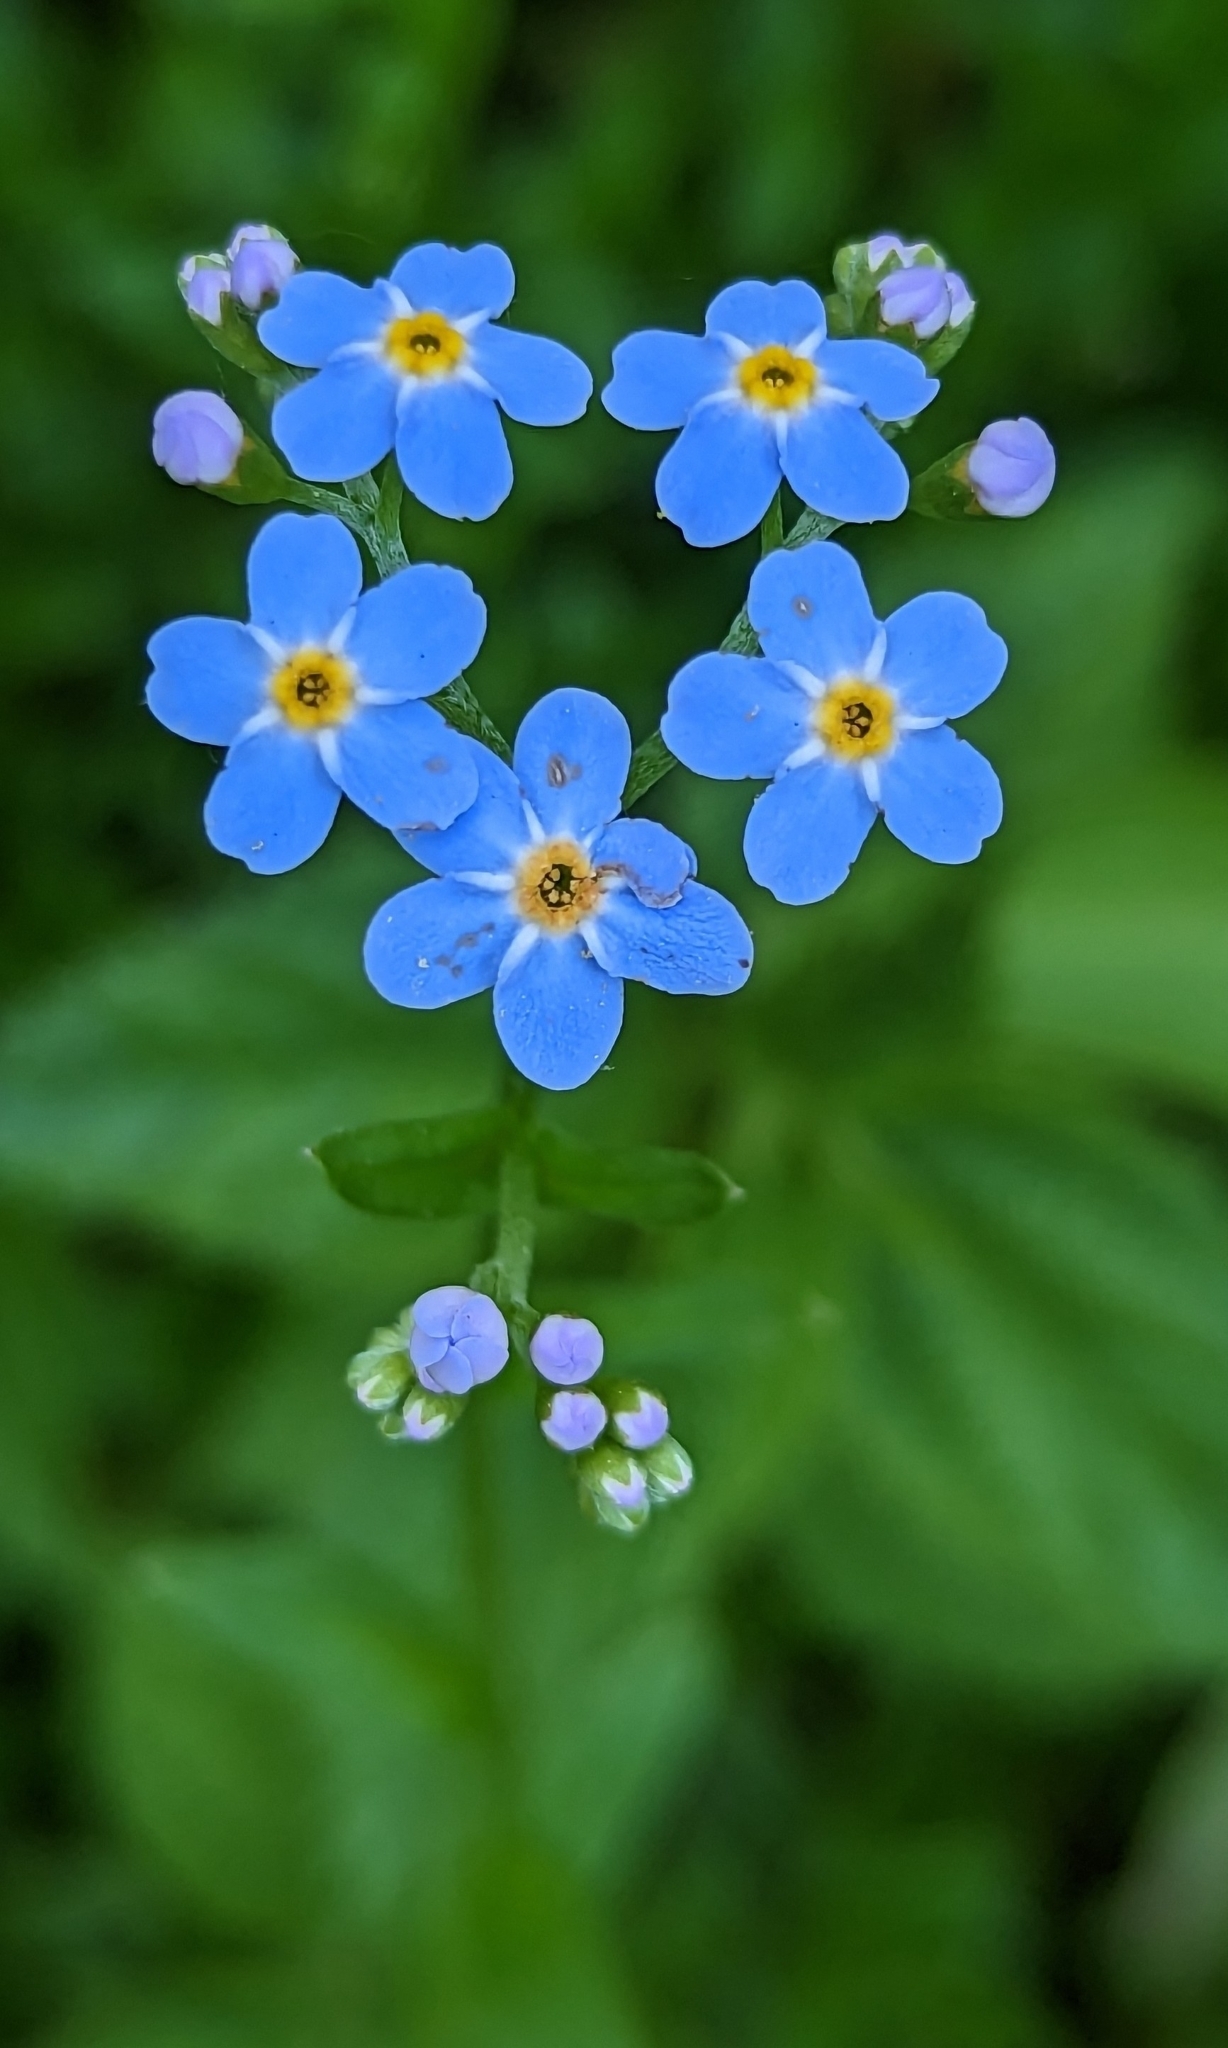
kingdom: Plantae
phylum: Tracheophyta
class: Magnoliopsida
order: Boraginales
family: Boraginaceae
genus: Myosotis
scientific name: Myosotis scorpioides
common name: Water forget-me-not
